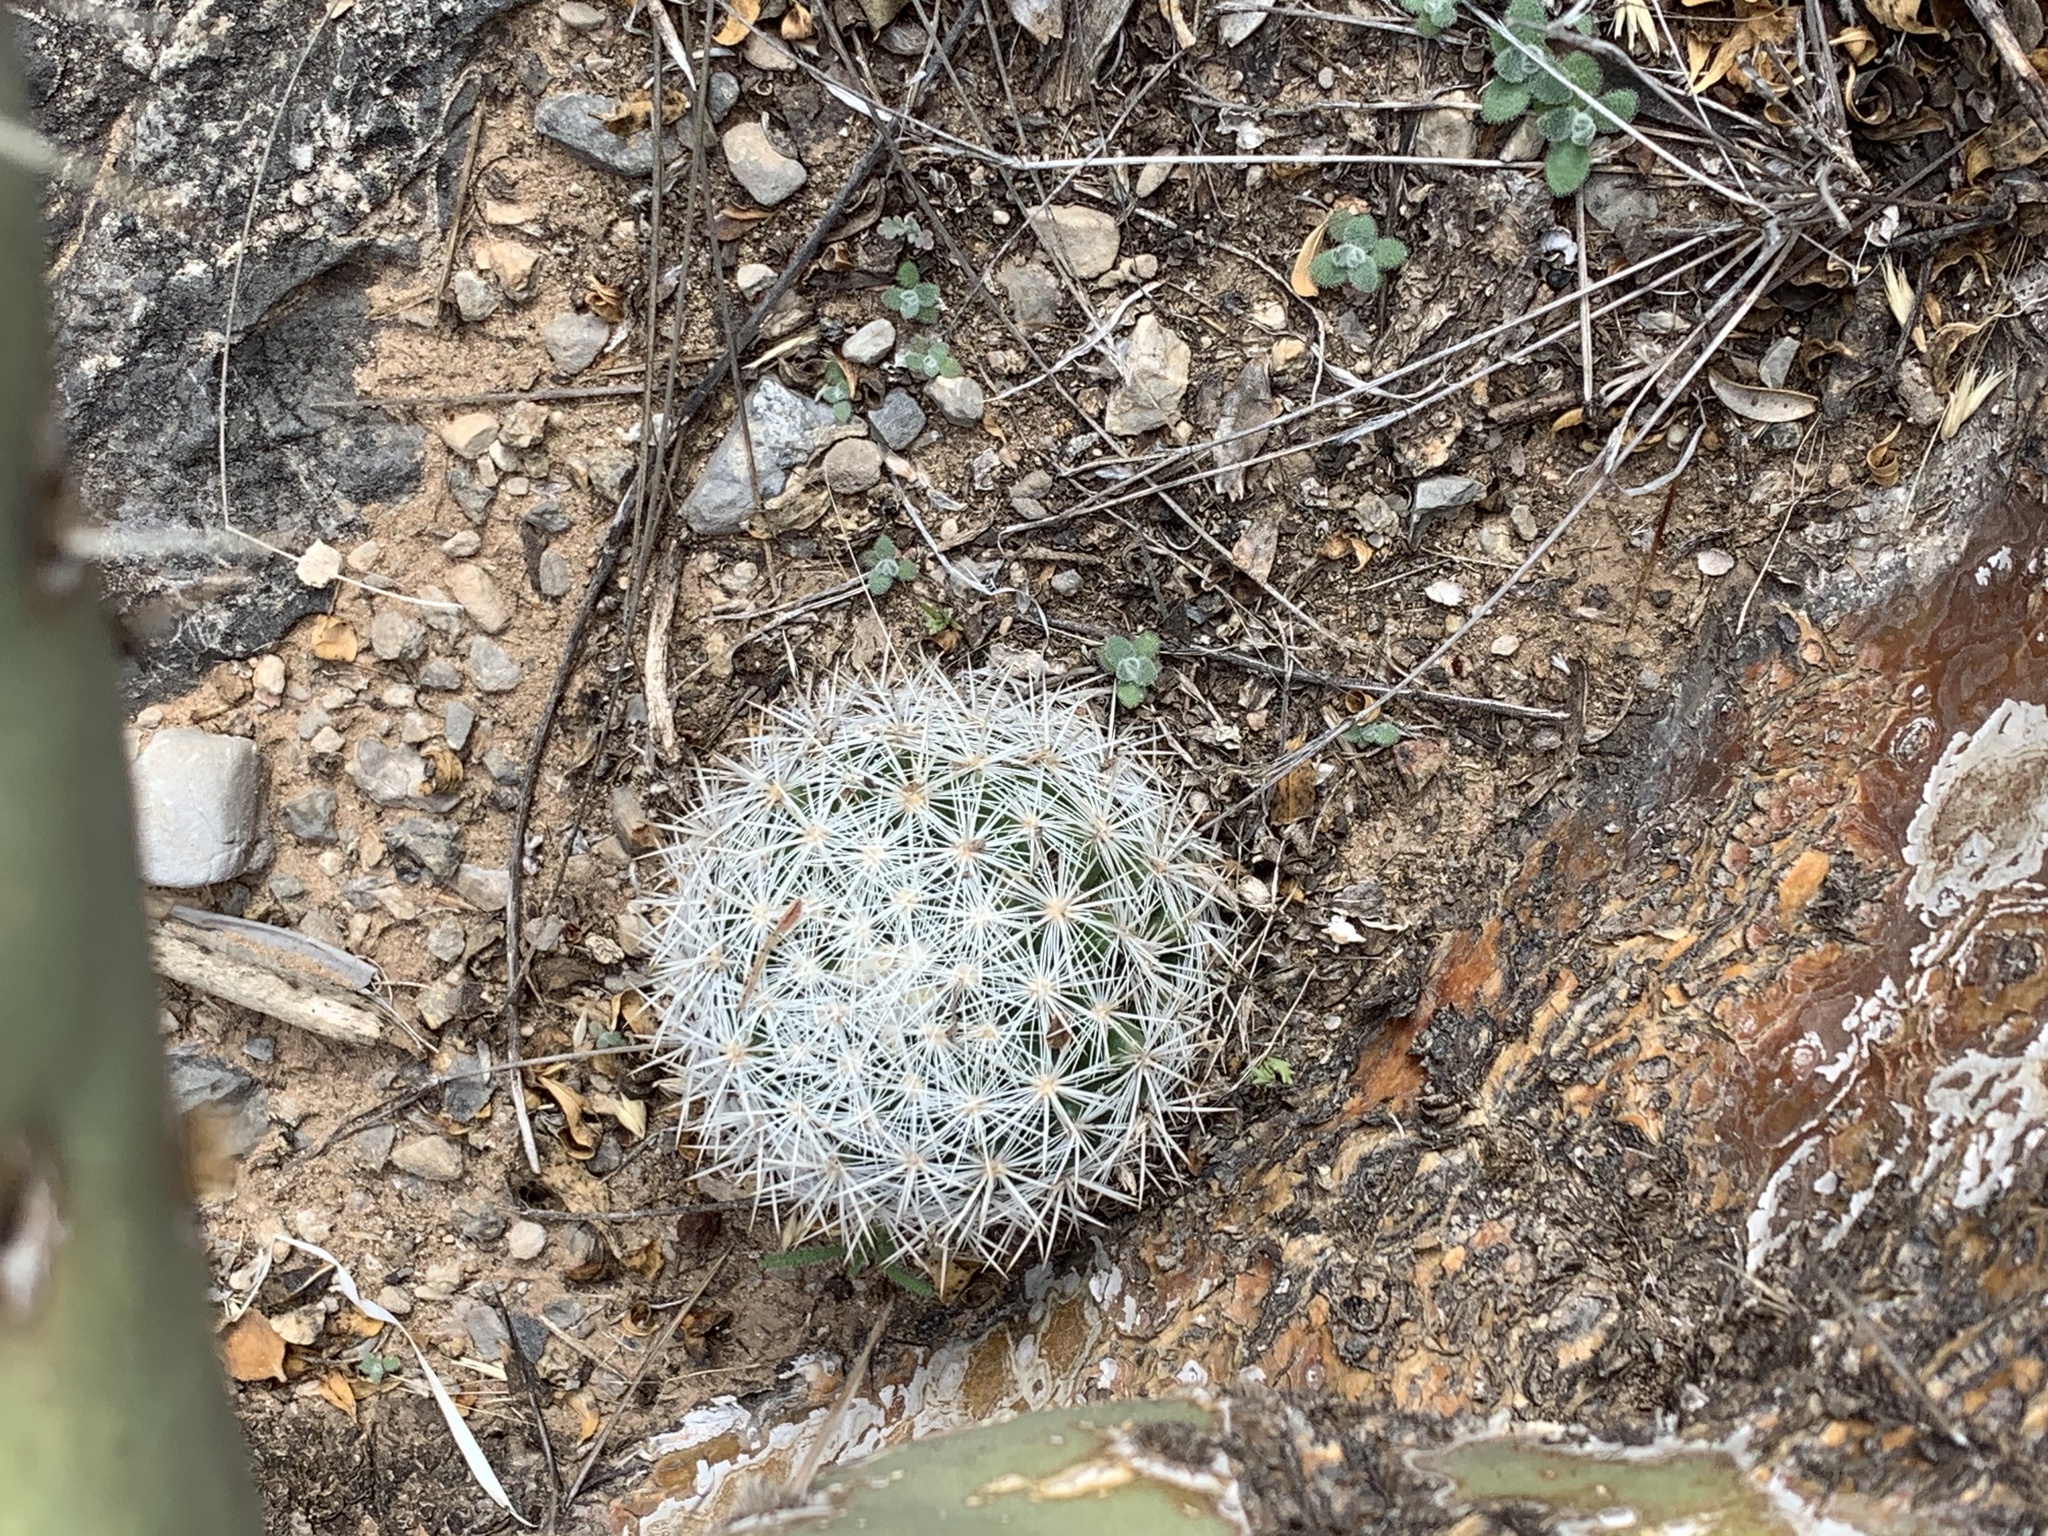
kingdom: Plantae
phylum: Tracheophyta
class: Magnoliopsida
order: Caryophyllales
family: Cactaceae
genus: Pelecyphora
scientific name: Pelecyphora sneedii
